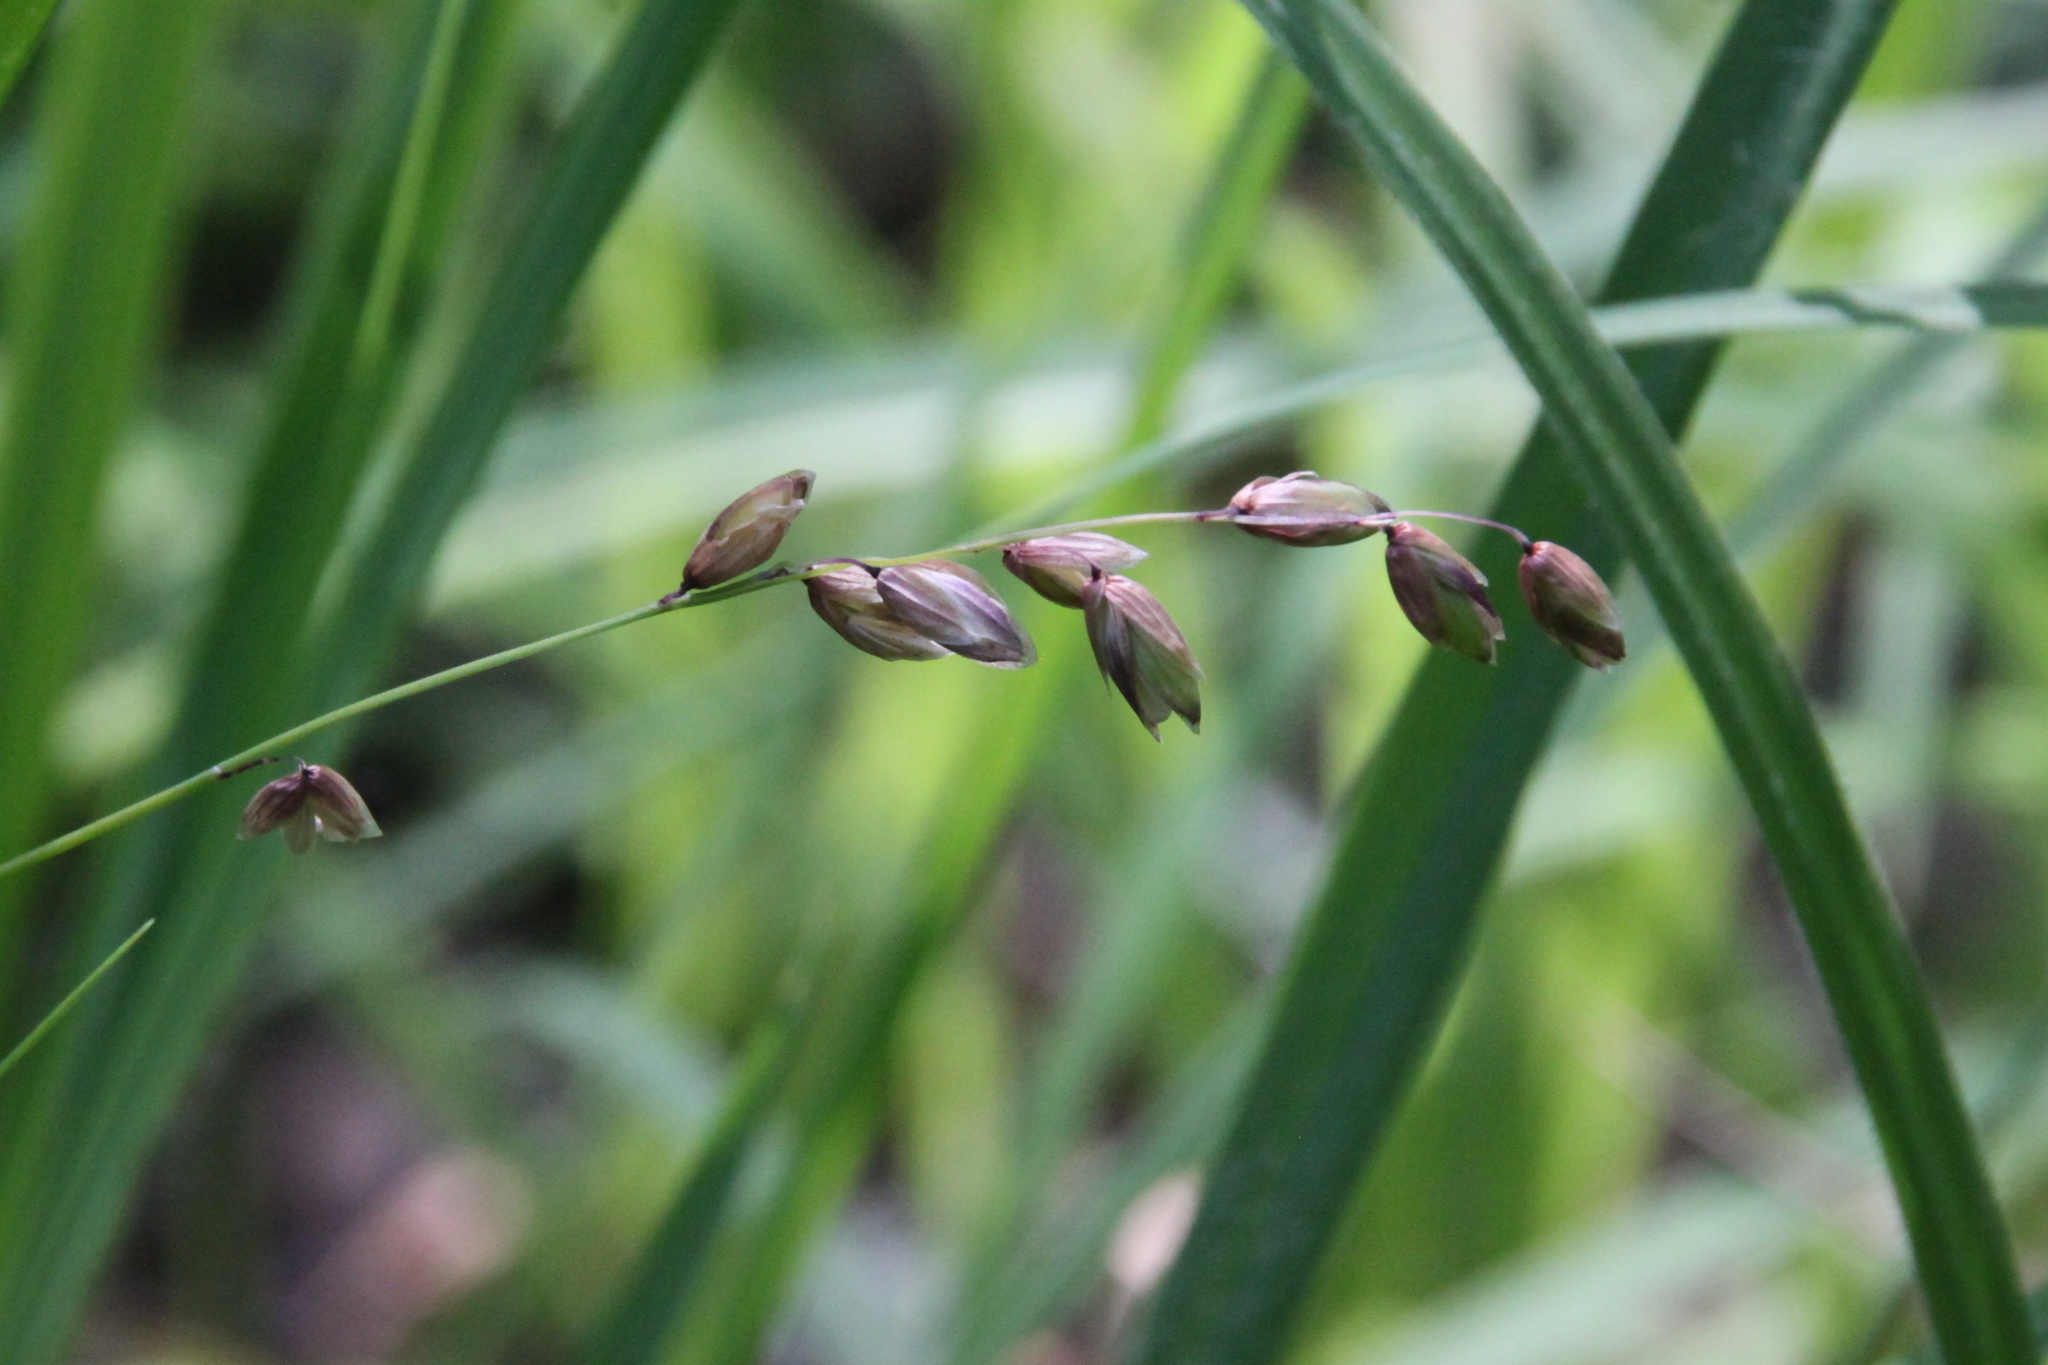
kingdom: Plantae
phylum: Tracheophyta
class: Liliopsida
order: Poales
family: Poaceae
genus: Melica
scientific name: Melica nutans
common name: Mountain melick
